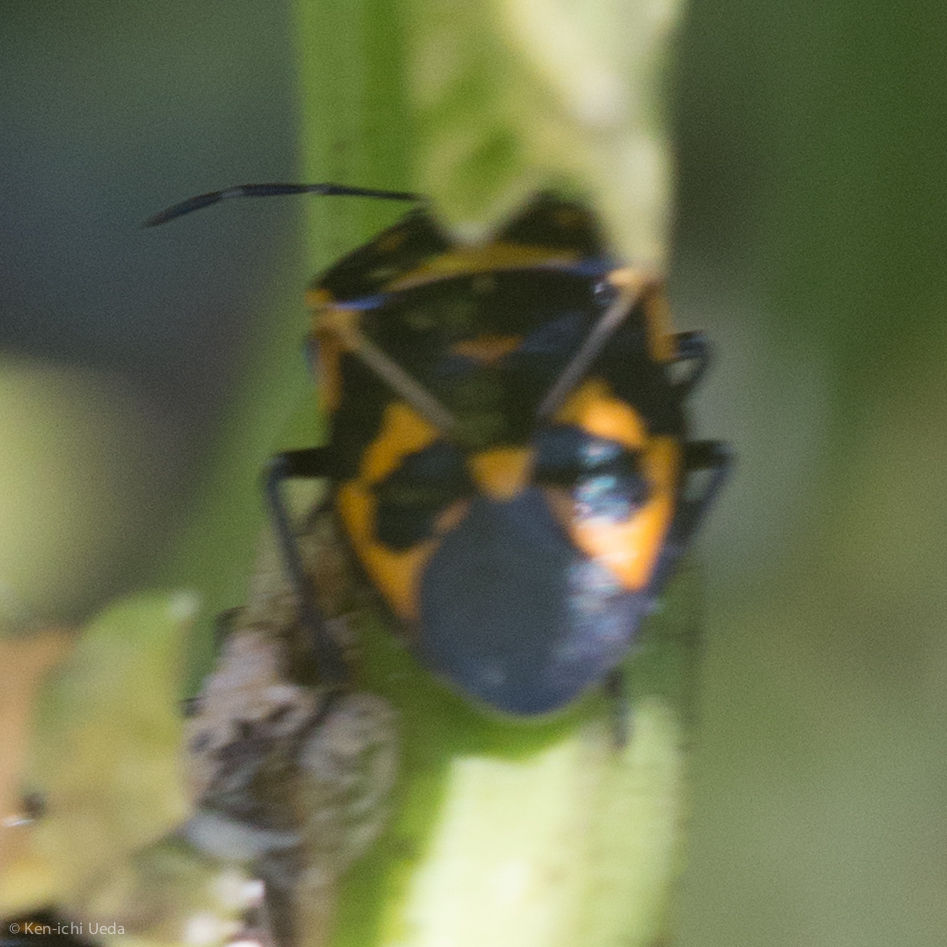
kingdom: Animalia
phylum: Arthropoda
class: Insecta
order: Hemiptera
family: Pentatomidae
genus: Murgantia
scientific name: Murgantia histrionica
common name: Harlequin bug
